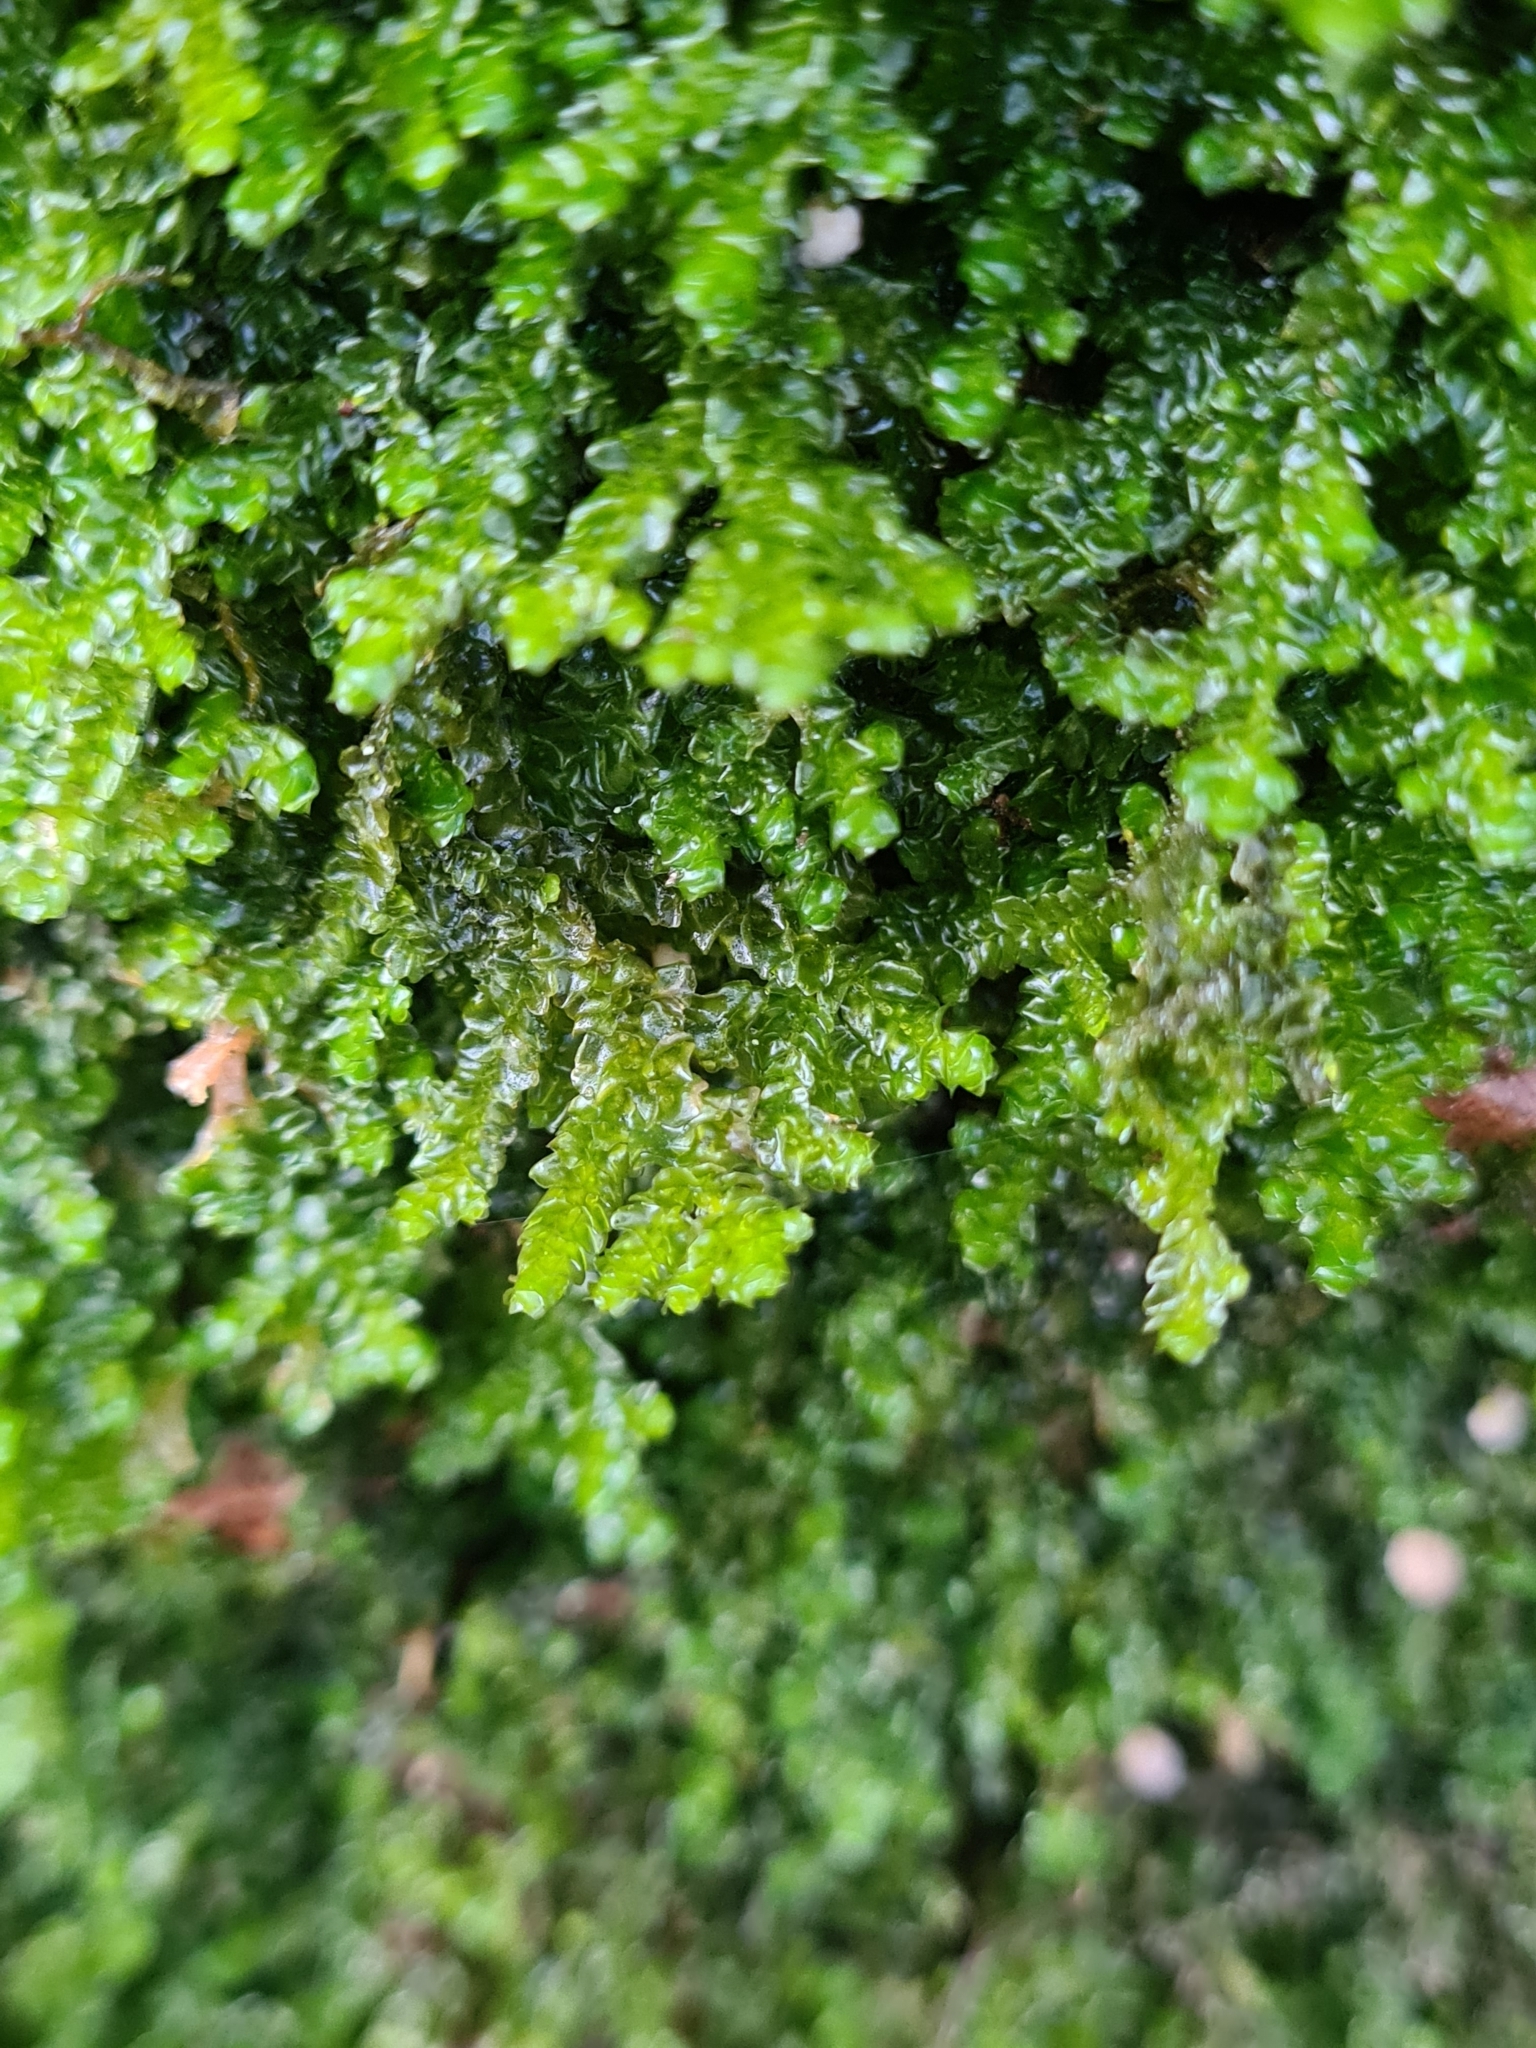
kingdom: Plantae
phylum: Marchantiophyta
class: Jungermanniopsida
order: Porellales
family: Porellaceae
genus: Porella
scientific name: Porella platyphylla
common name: Wall scalewort
